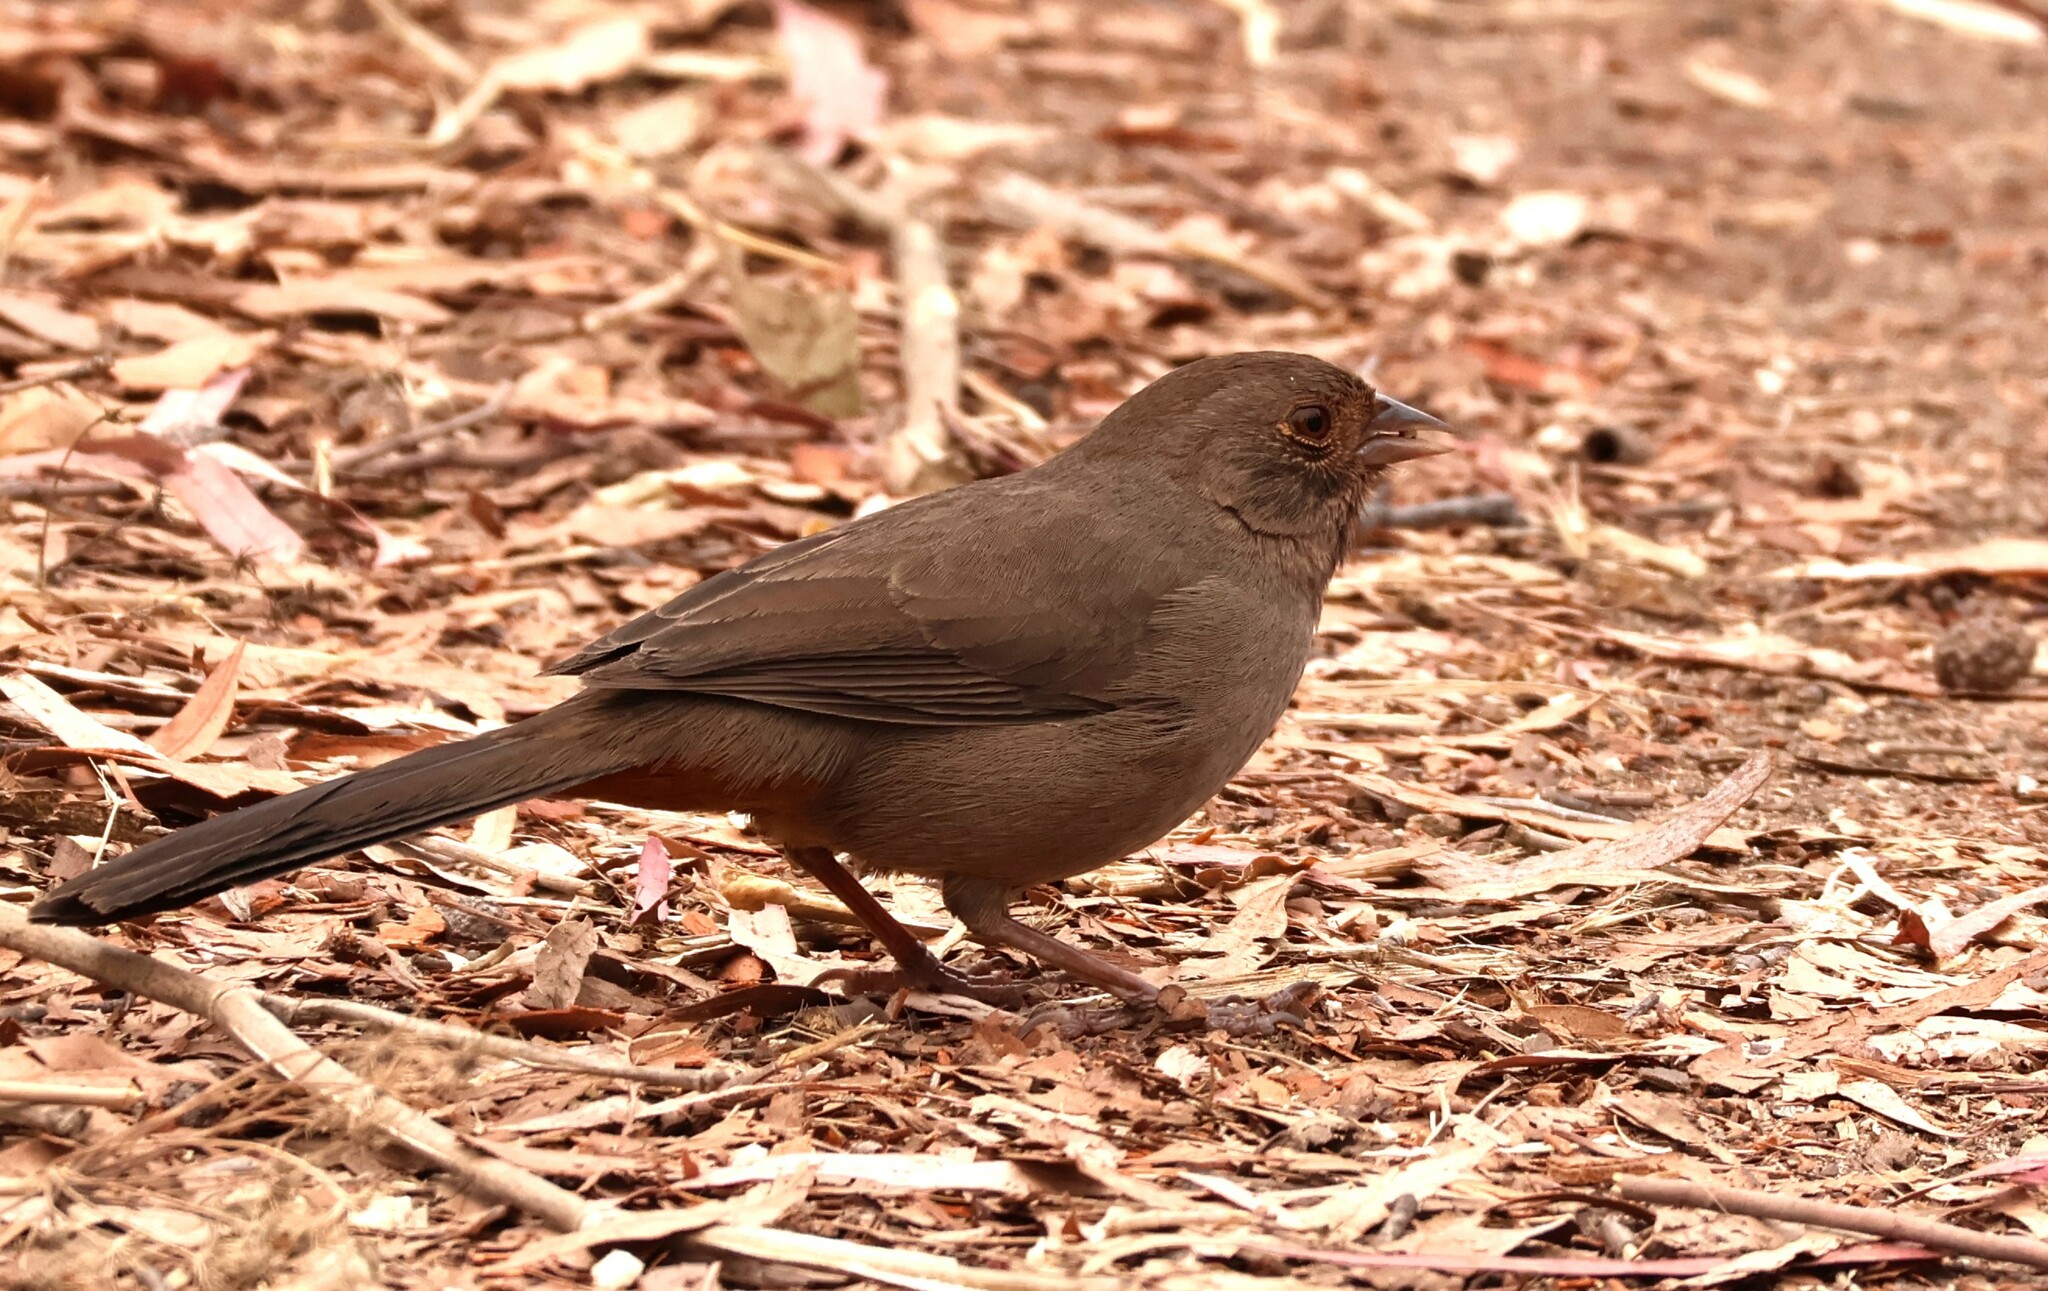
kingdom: Animalia
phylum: Chordata
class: Aves
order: Passeriformes
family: Passerellidae
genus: Melozone
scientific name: Melozone crissalis
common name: California towhee
